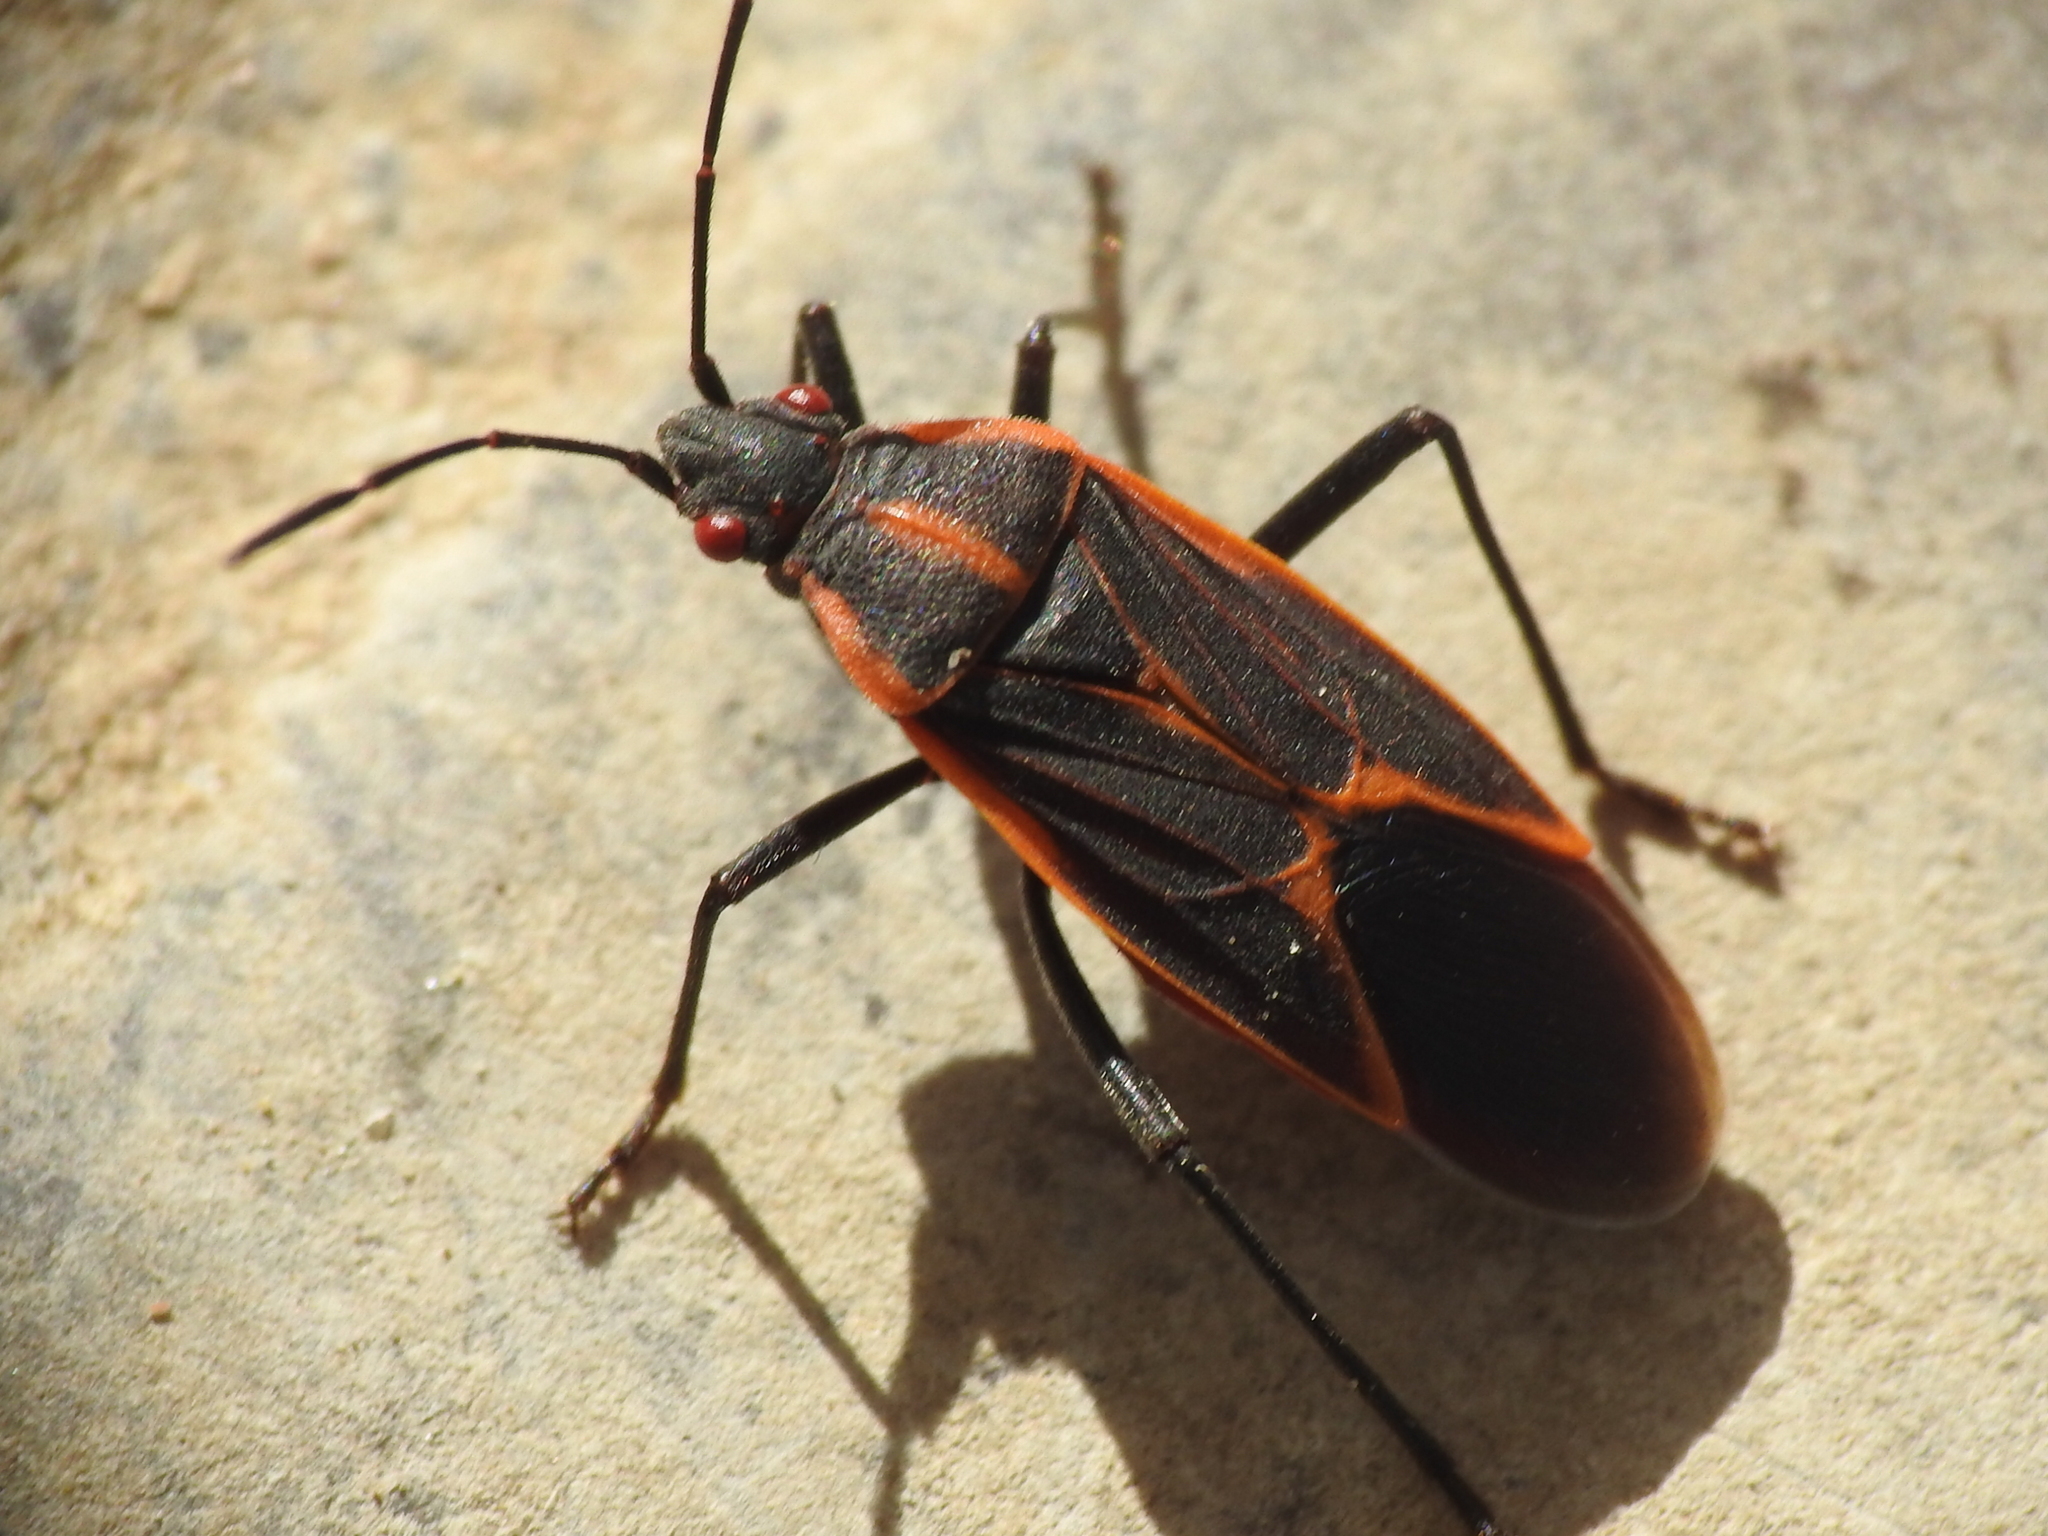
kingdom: Animalia
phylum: Arthropoda
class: Insecta
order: Hemiptera
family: Rhopalidae
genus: Boisea
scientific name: Boisea trivittata
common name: Boxelder bug
